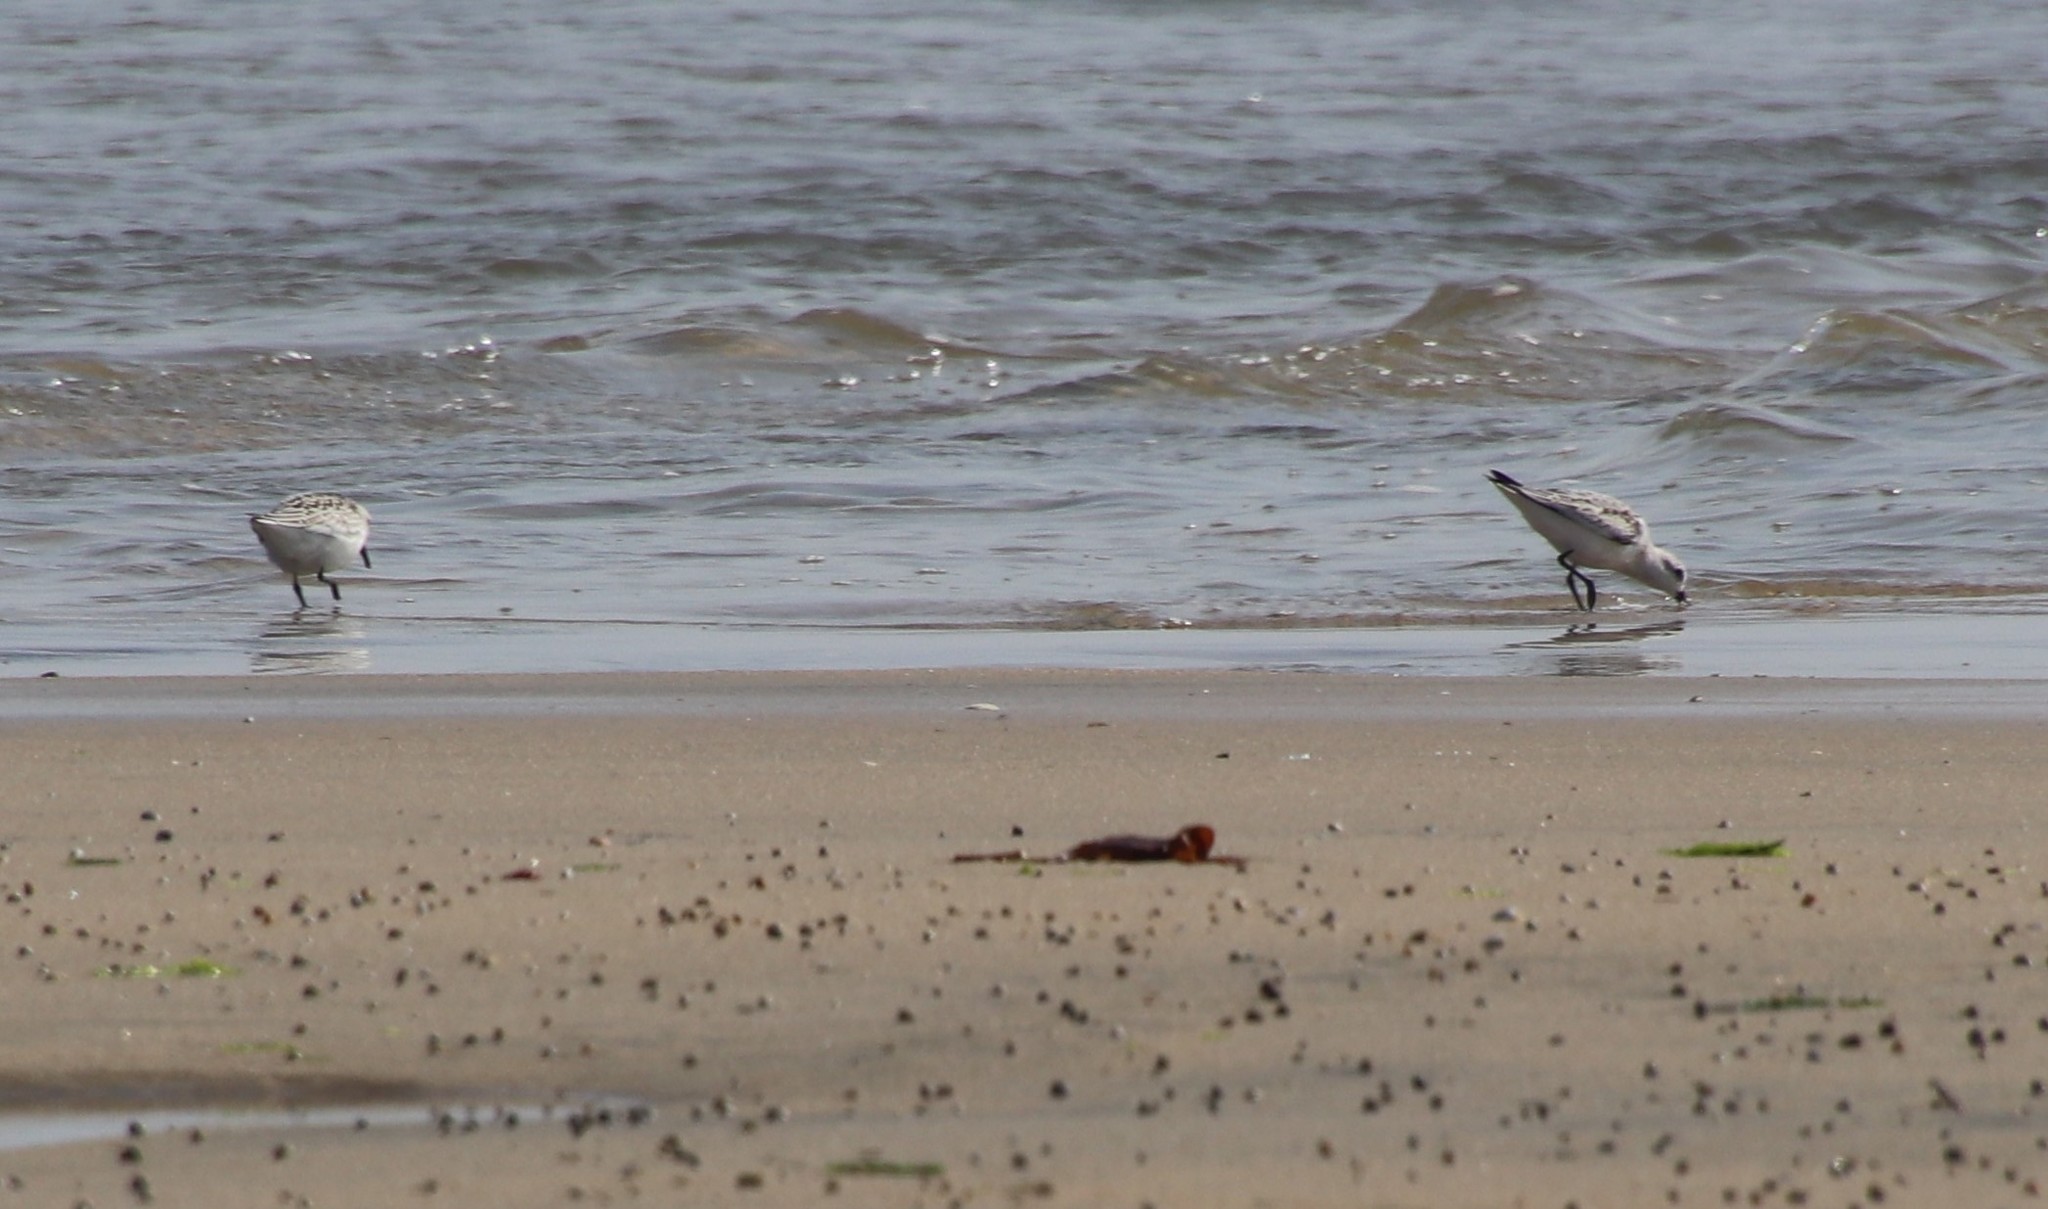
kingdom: Animalia
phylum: Chordata
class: Aves
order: Charadriiformes
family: Scolopacidae
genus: Calidris
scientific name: Calidris alba
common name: Sanderling
